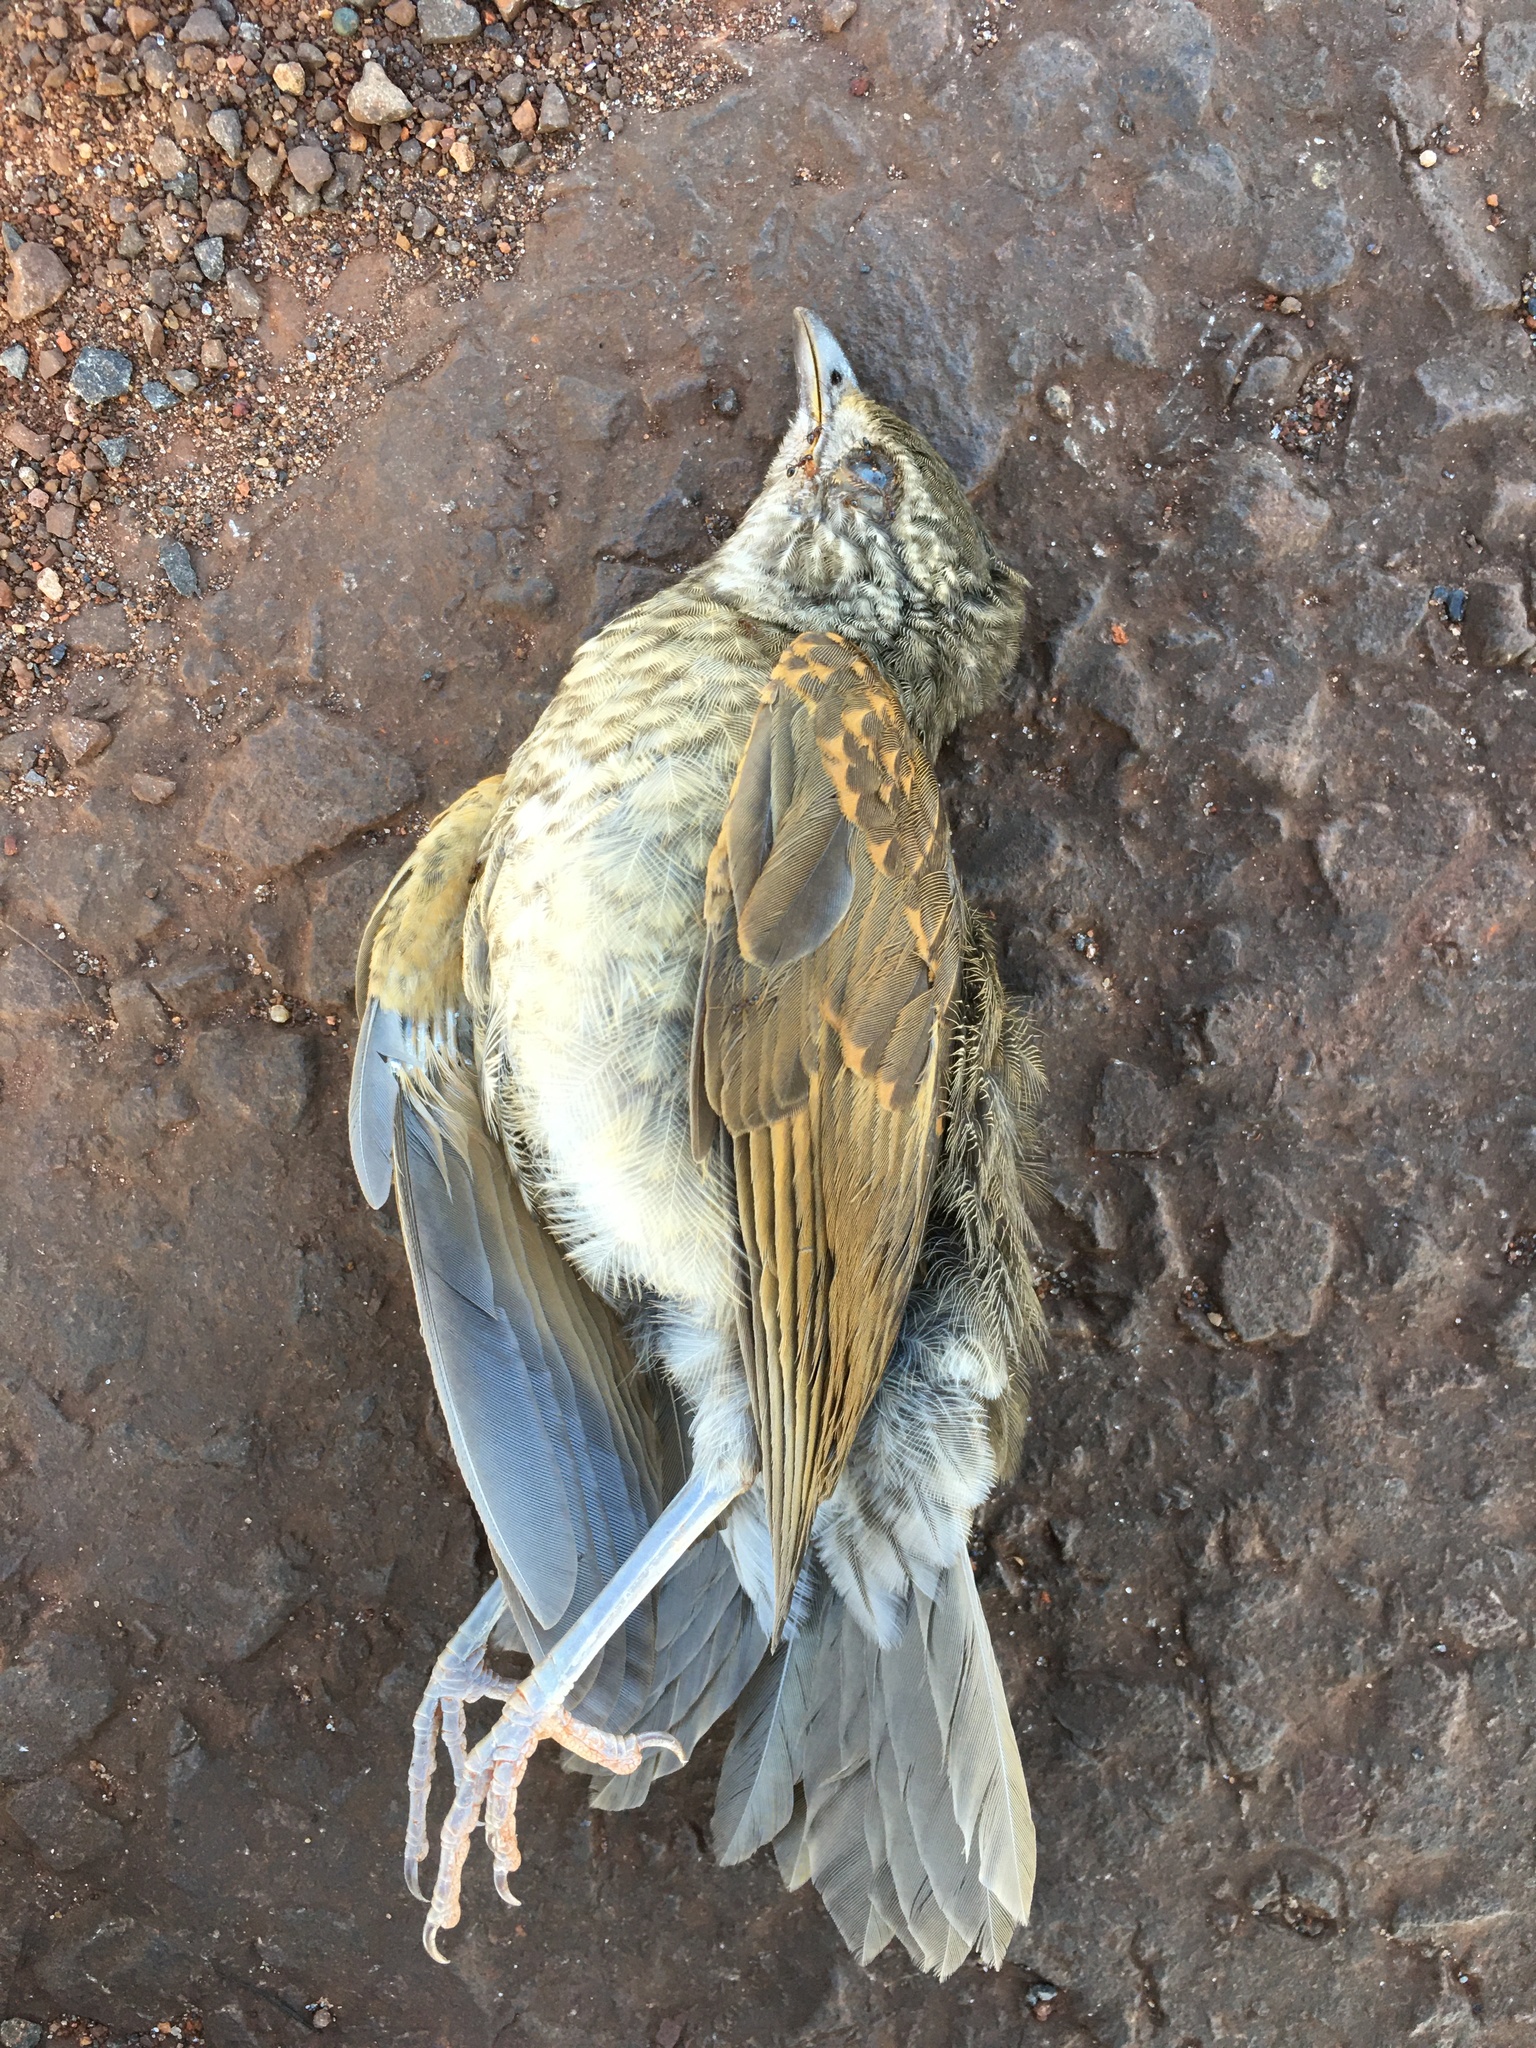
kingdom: Animalia
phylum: Chordata
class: Aves
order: Passeriformes
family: Turdidae
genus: Turdus
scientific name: Turdus leucomelas
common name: Pale-breasted thrush
